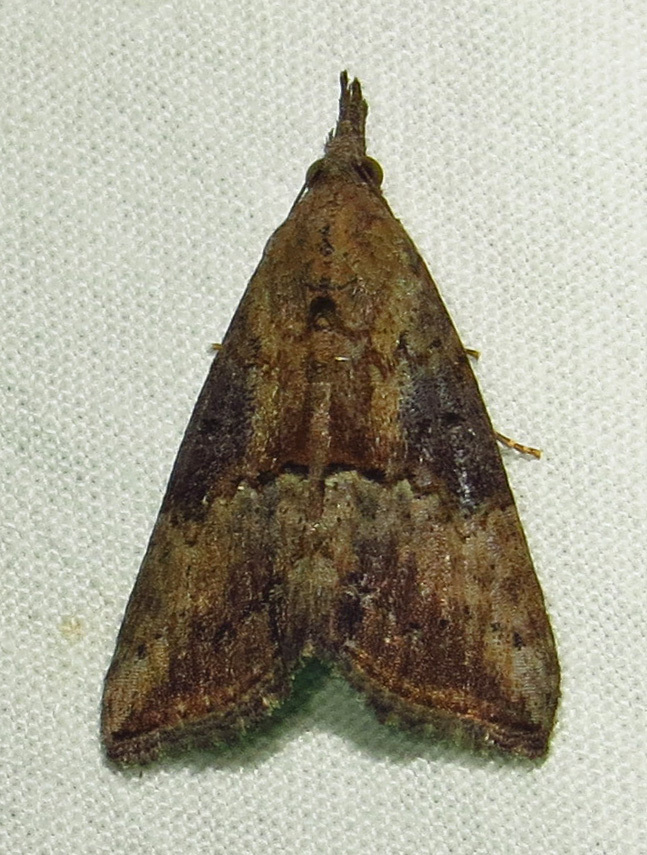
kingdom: Animalia
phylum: Arthropoda
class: Insecta
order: Lepidoptera
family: Erebidae
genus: Hypena
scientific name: Hypena scabra
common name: Green cloverworm
